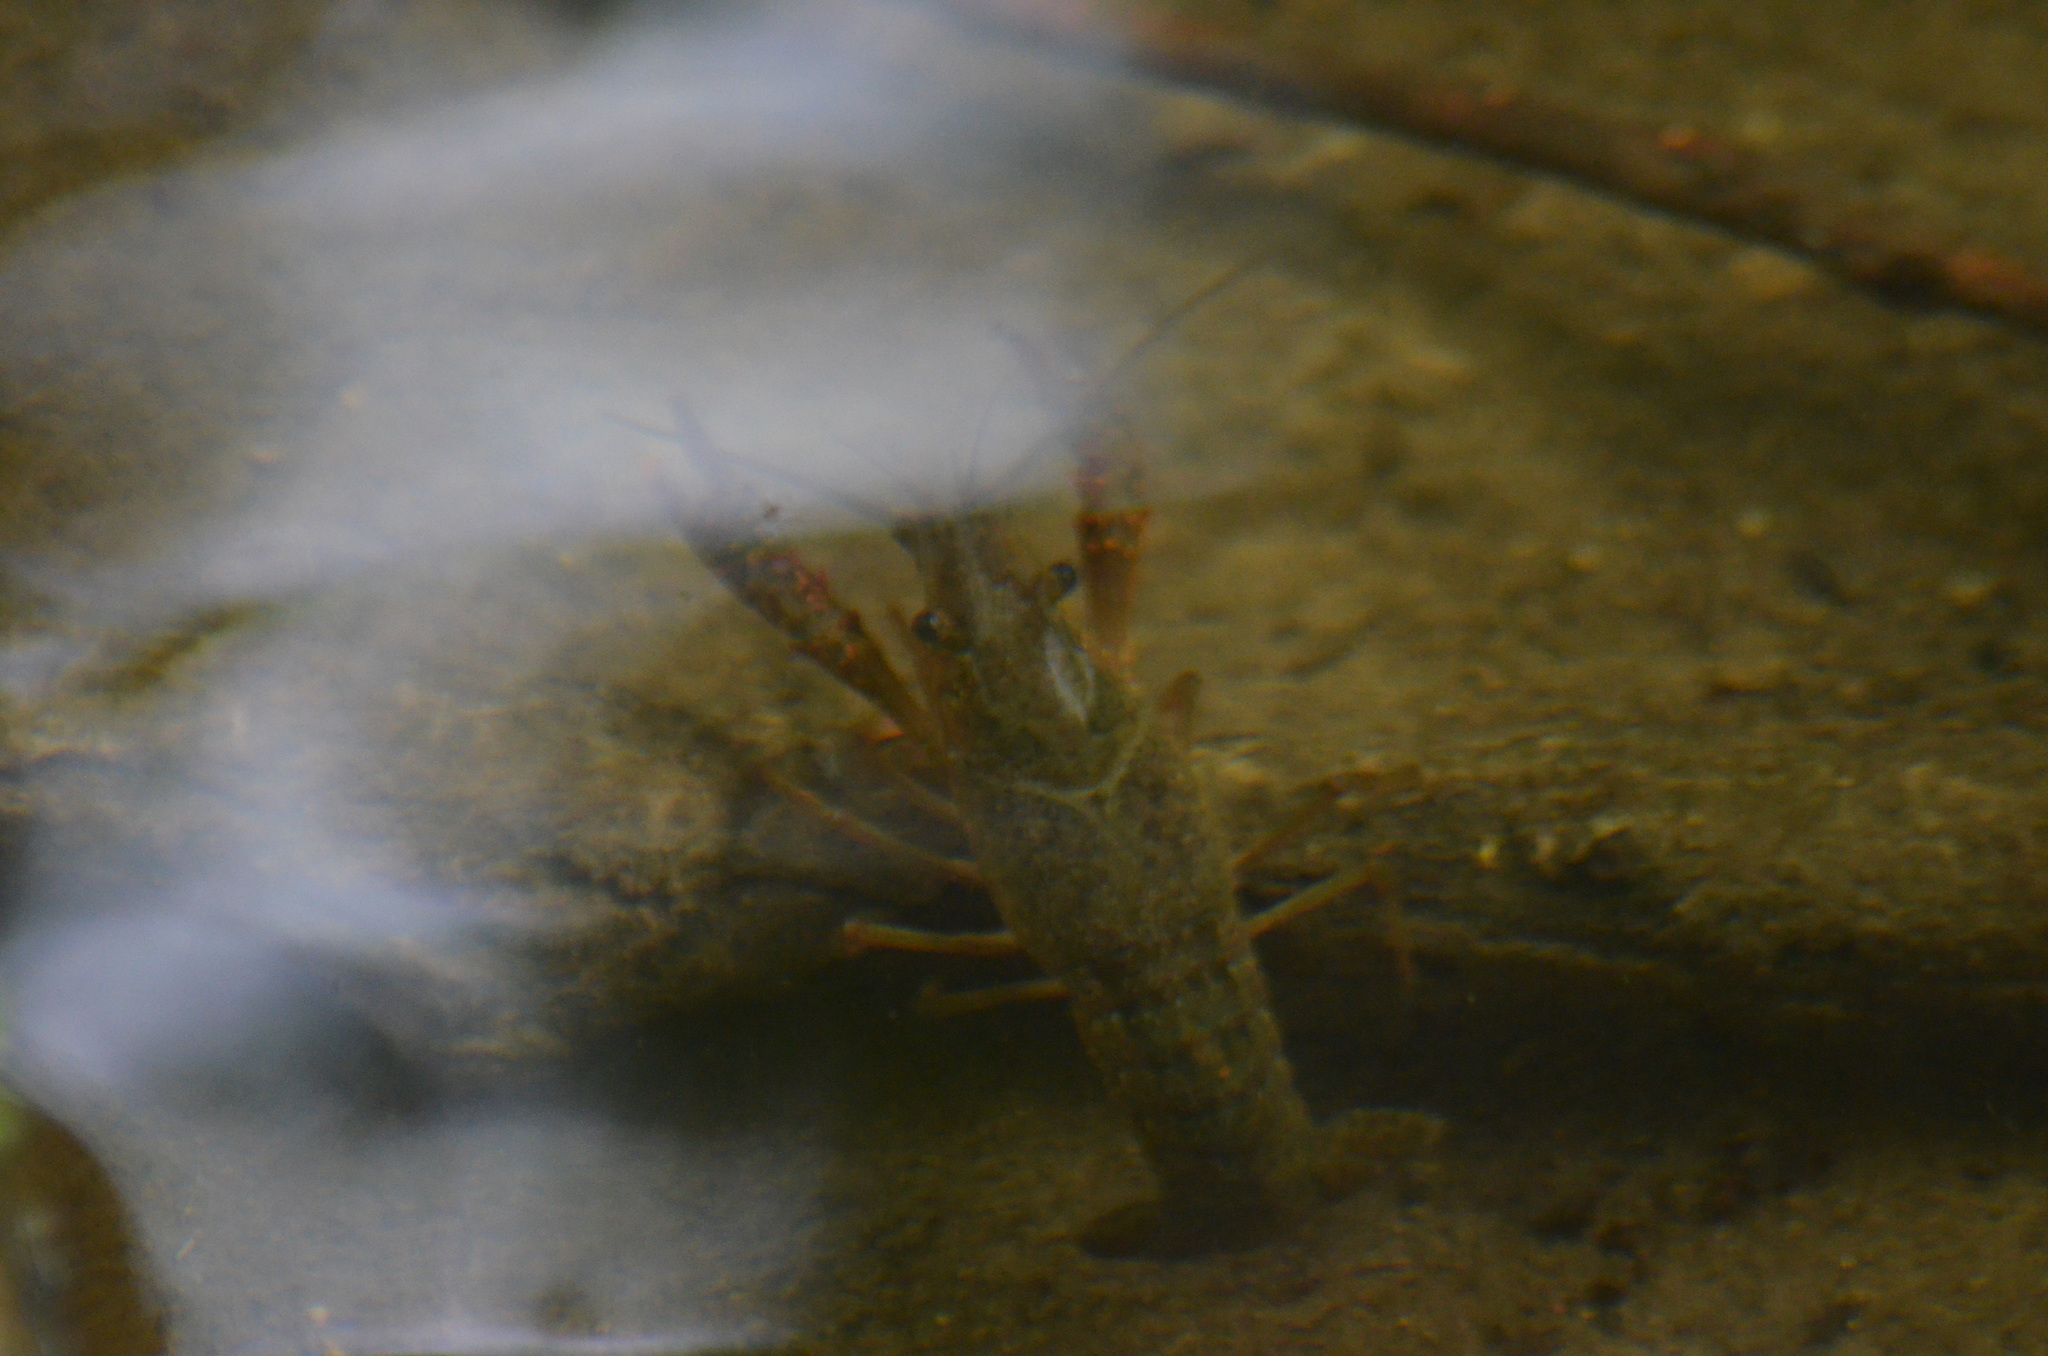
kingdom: Animalia
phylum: Arthropoda
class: Malacostraca
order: Decapoda
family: Cambaridae
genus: Procambarus
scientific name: Procambarus clarkii
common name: Red swamp crayfish
